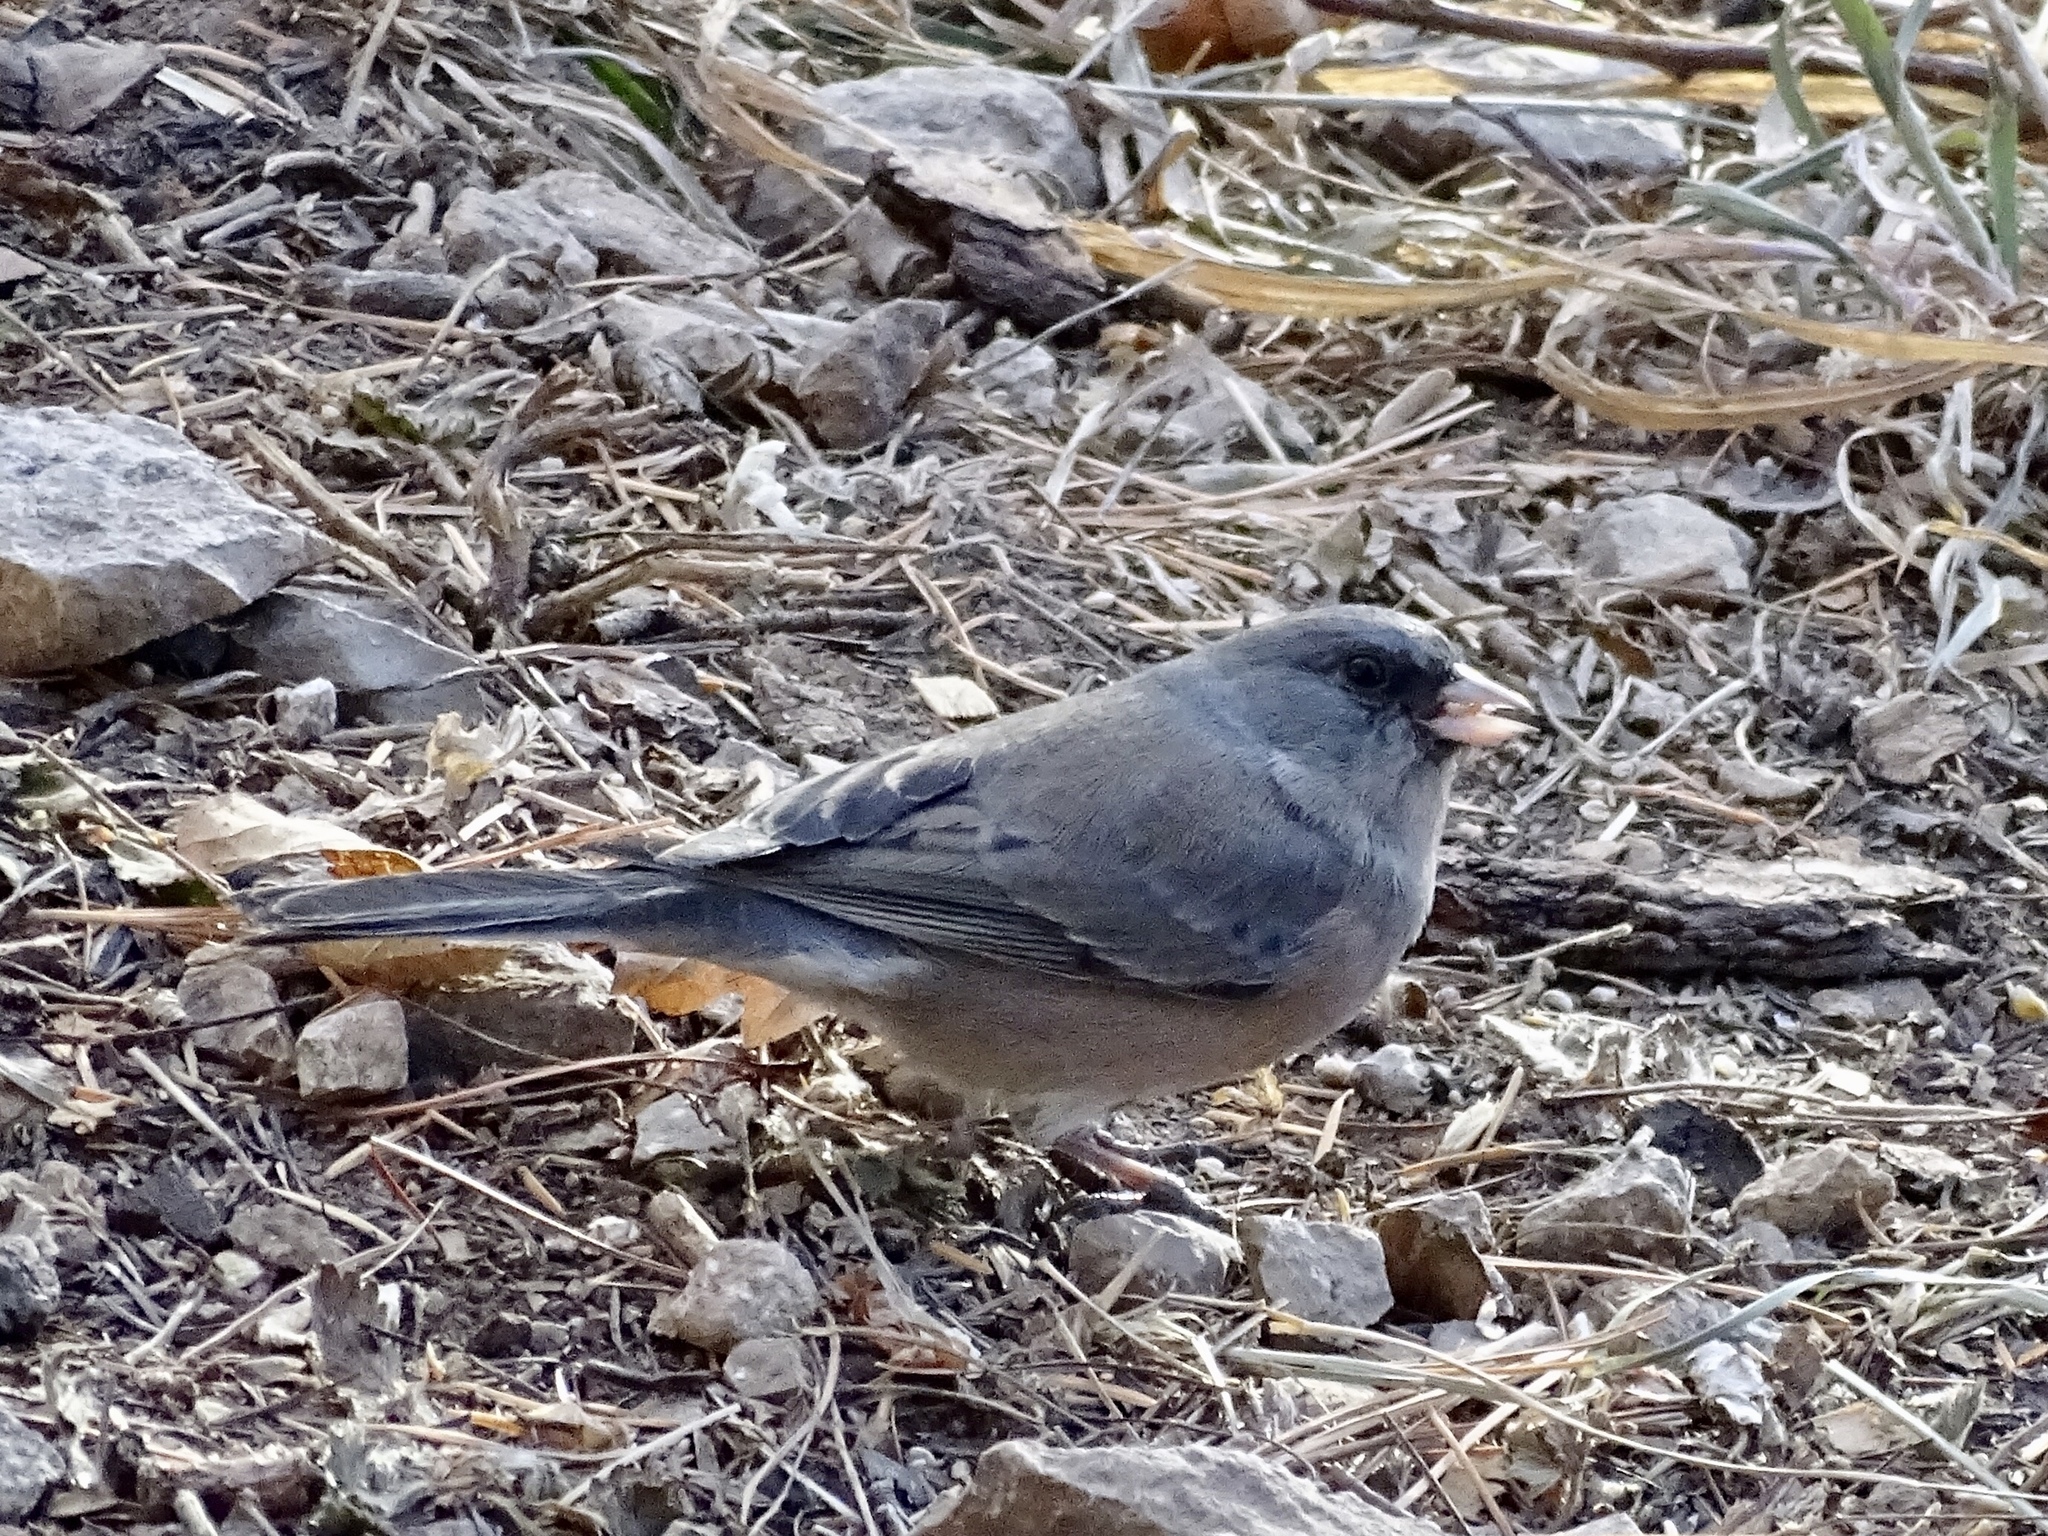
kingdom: Animalia
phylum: Chordata
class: Aves
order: Passeriformes
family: Passerellidae
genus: Junco
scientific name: Junco hyemalis
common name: Dark-eyed junco
